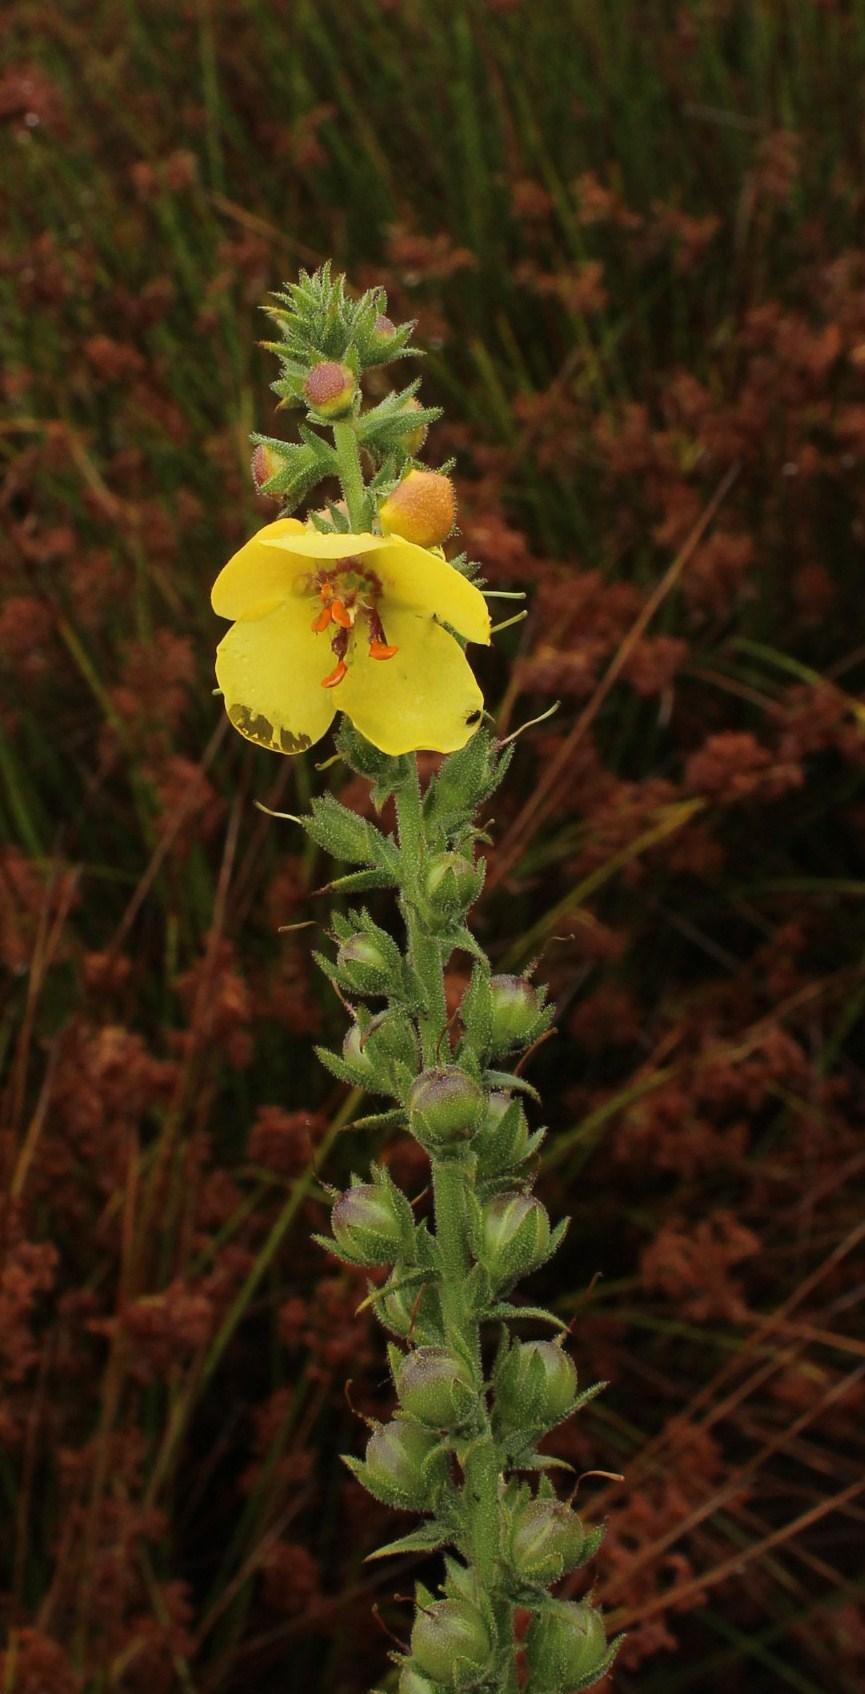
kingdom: Plantae
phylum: Tracheophyta
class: Magnoliopsida
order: Lamiales
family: Scrophulariaceae
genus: Verbascum
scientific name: Verbascum virgatum
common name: Twiggy mullein
